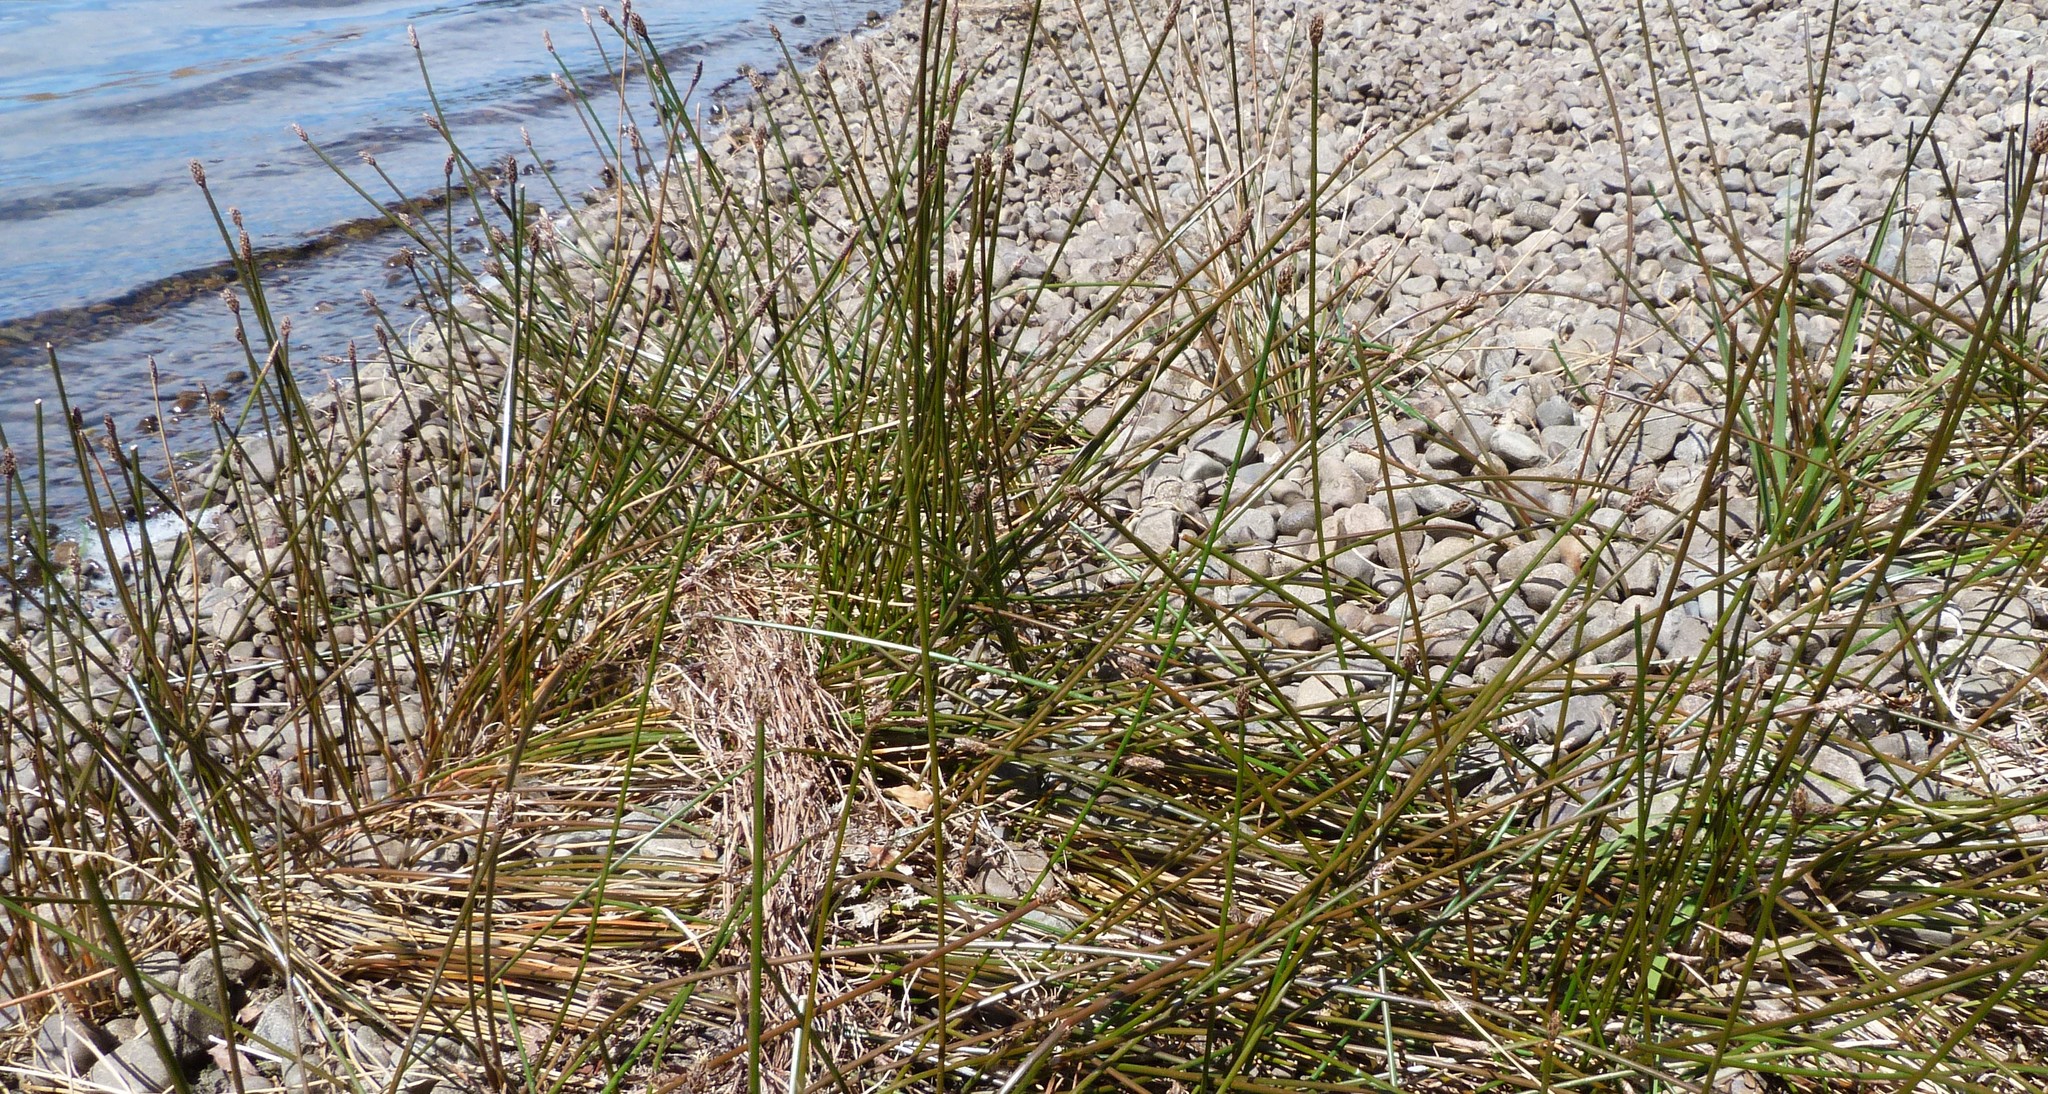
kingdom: Plantae
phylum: Tracheophyta
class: Liliopsida
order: Poales
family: Cyperaceae
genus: Eleocharis
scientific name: Eleocharis acuta
